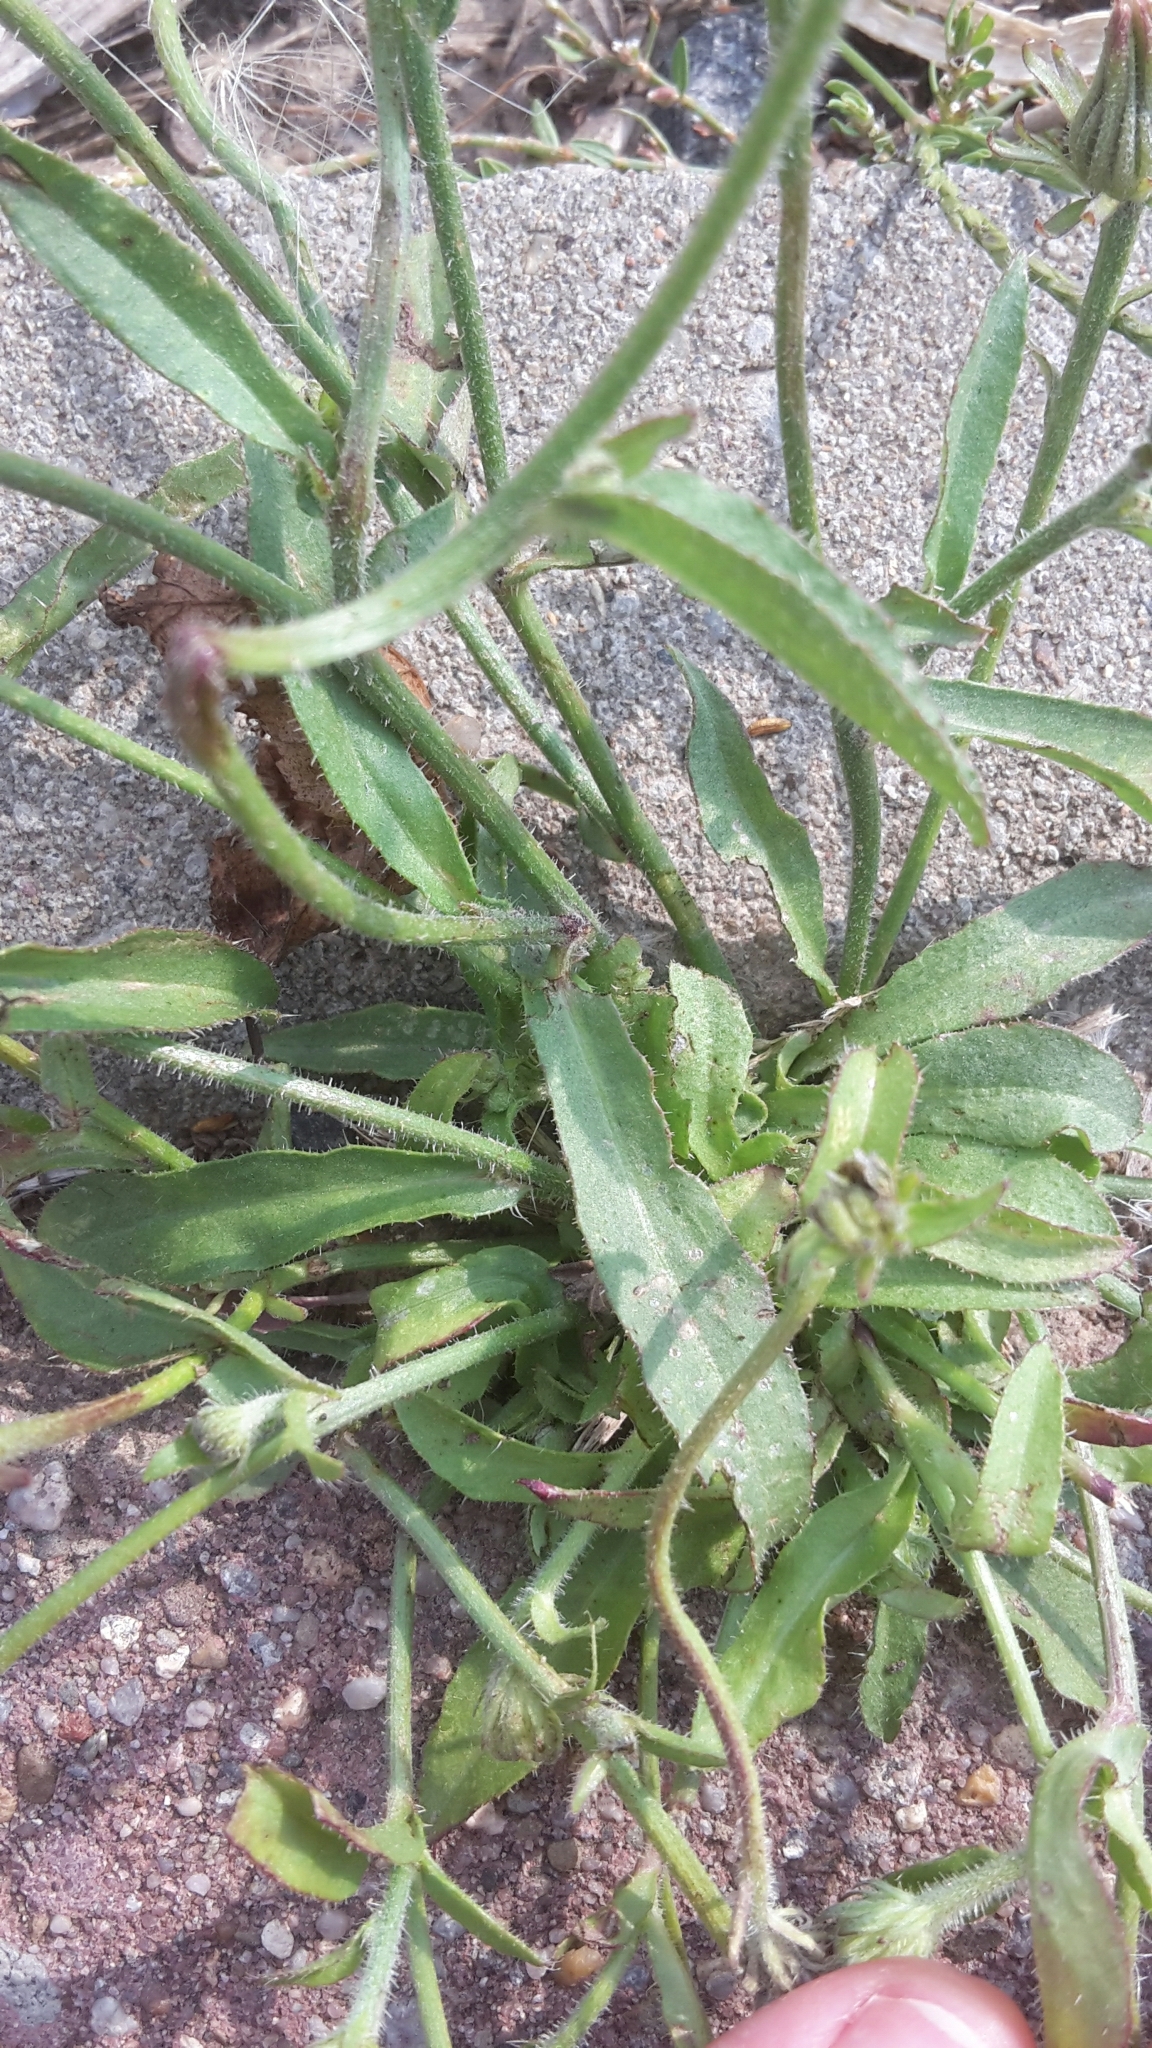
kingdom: Plantae
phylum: Tracheophyta
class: Magnoliopsida
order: Asterales
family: Asteraceae
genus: Picris
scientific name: Picris hieracioides
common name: Hawkweed oxtongue
